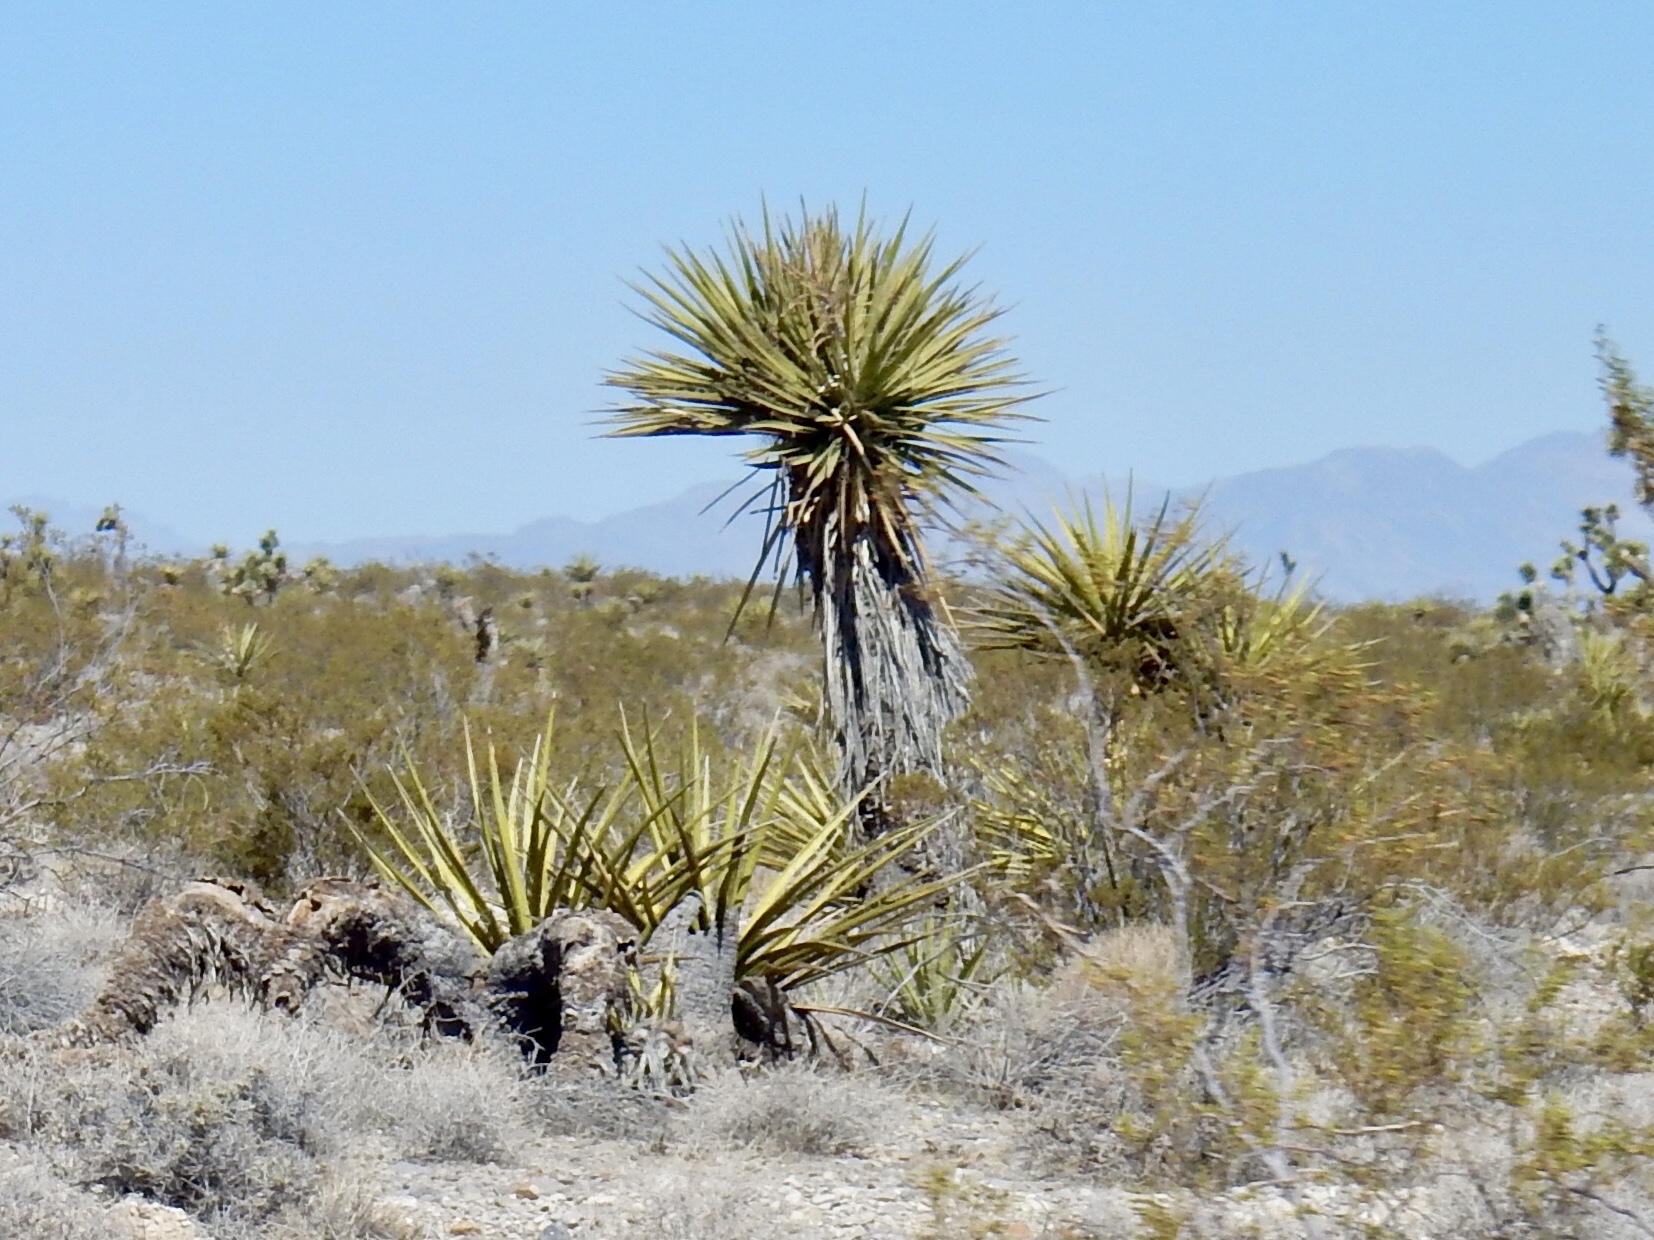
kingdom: Plantae
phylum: Tracheophyta
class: Liliopsida
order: Asparagales
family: Asparagaceae
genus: Yucca
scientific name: Yucca schidigera
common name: Mojave yucca
